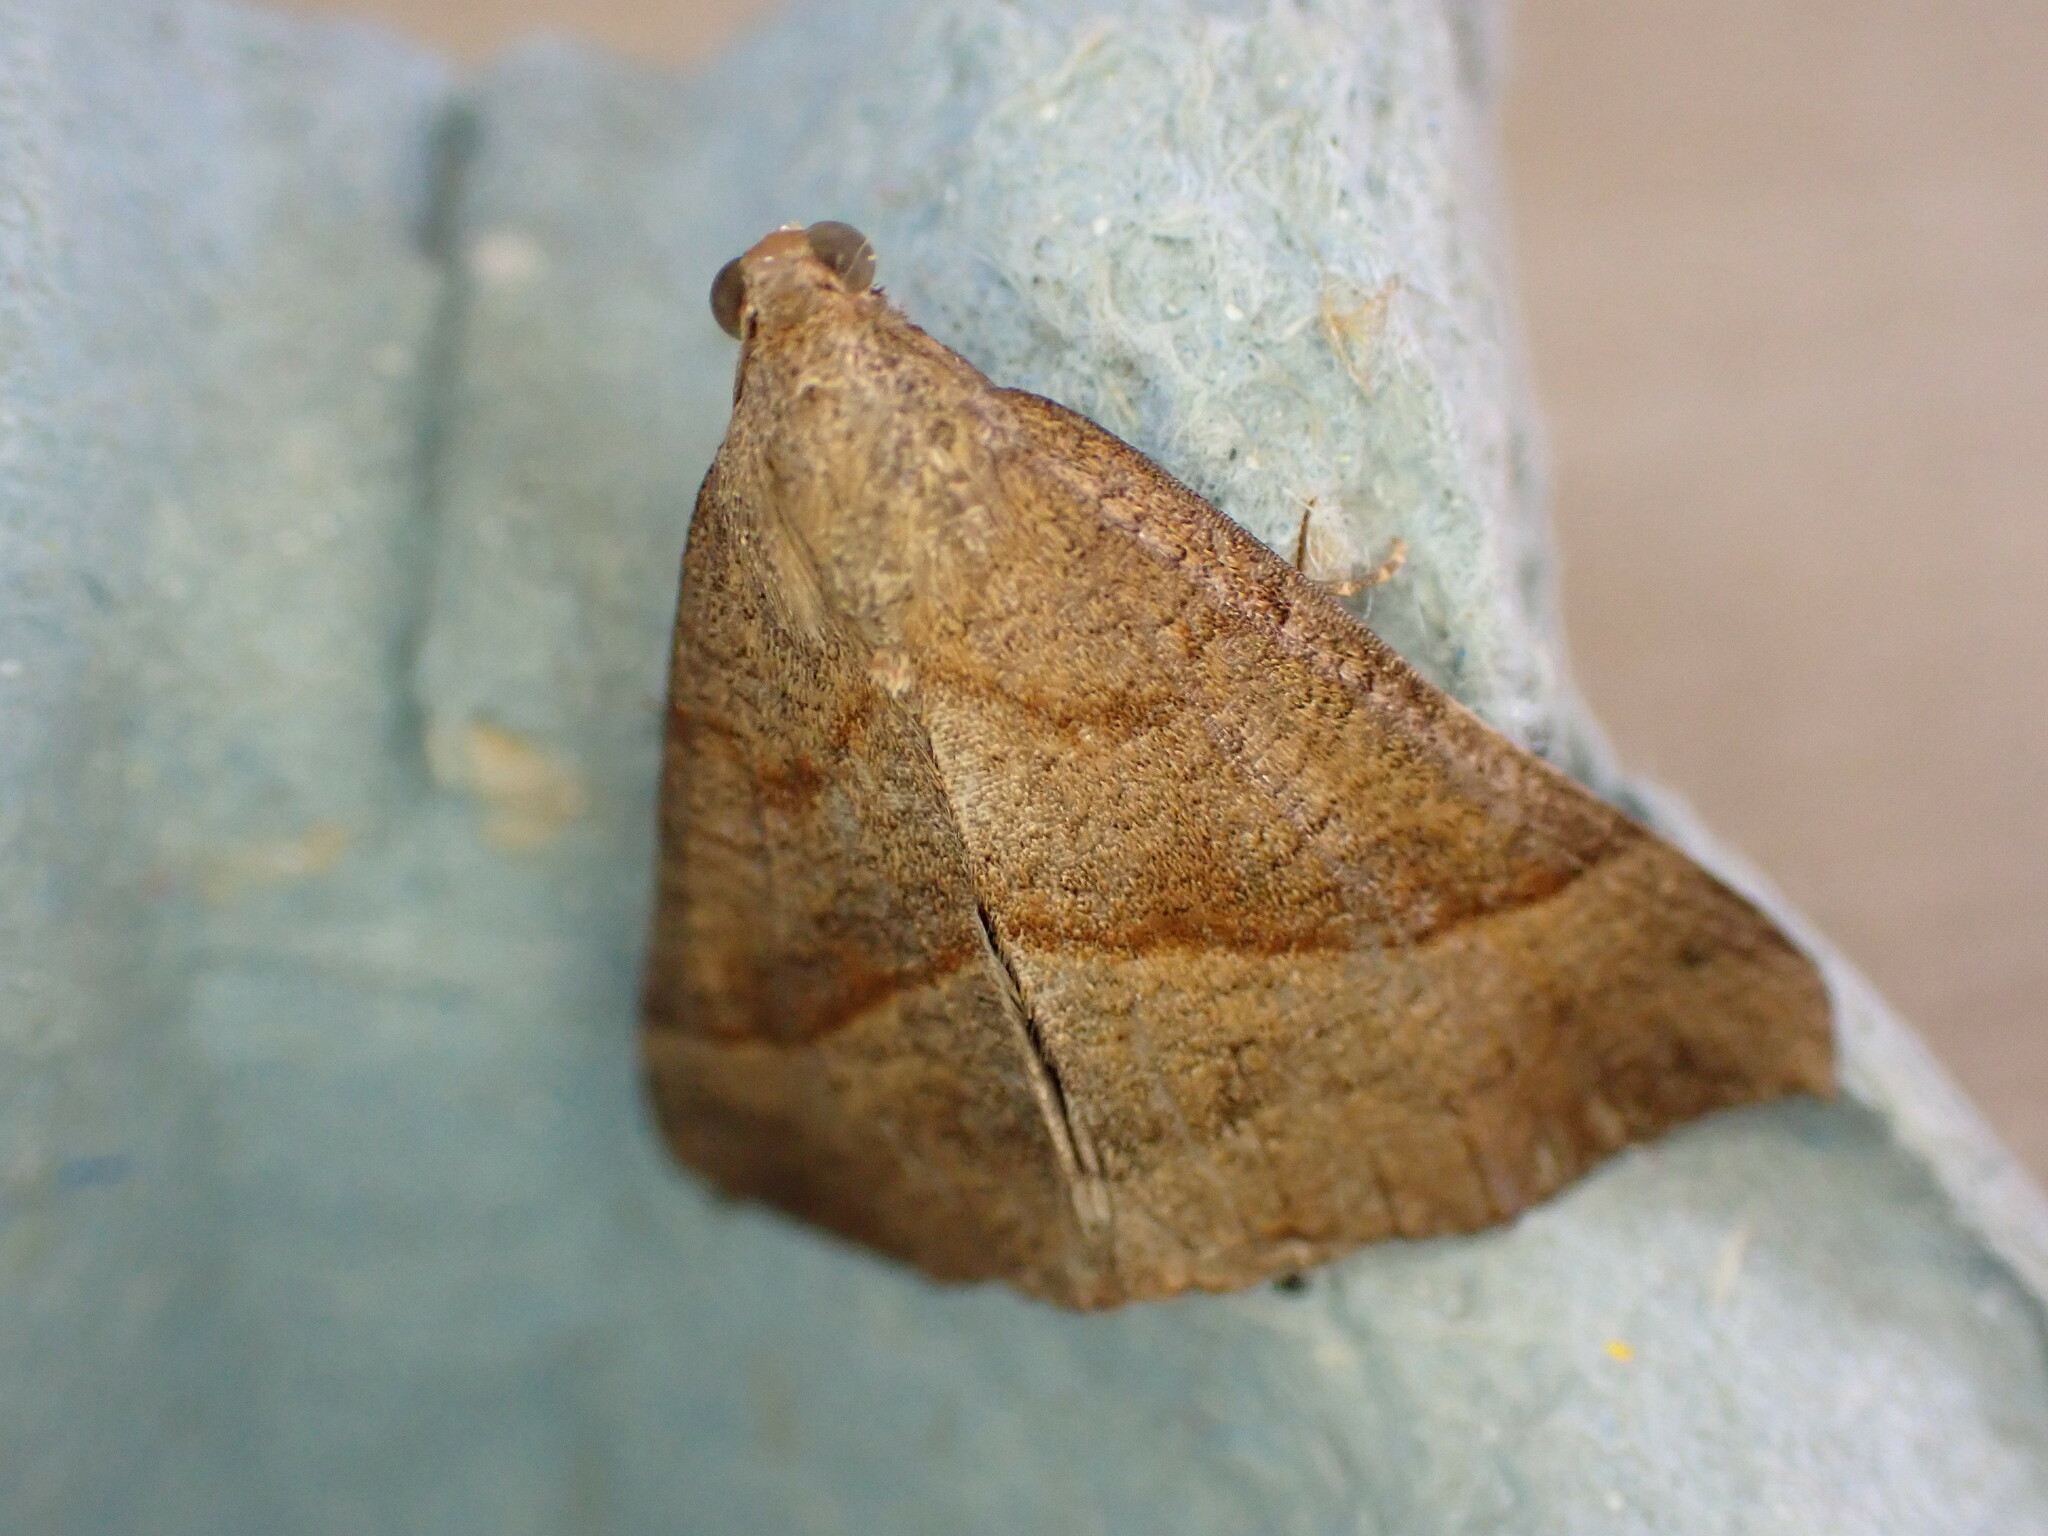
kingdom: Animalia
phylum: Arthropoda
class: Insecta
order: Lepidoptera
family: Erebidae
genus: Hypena
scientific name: Hypena proboscidalis
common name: Snout
